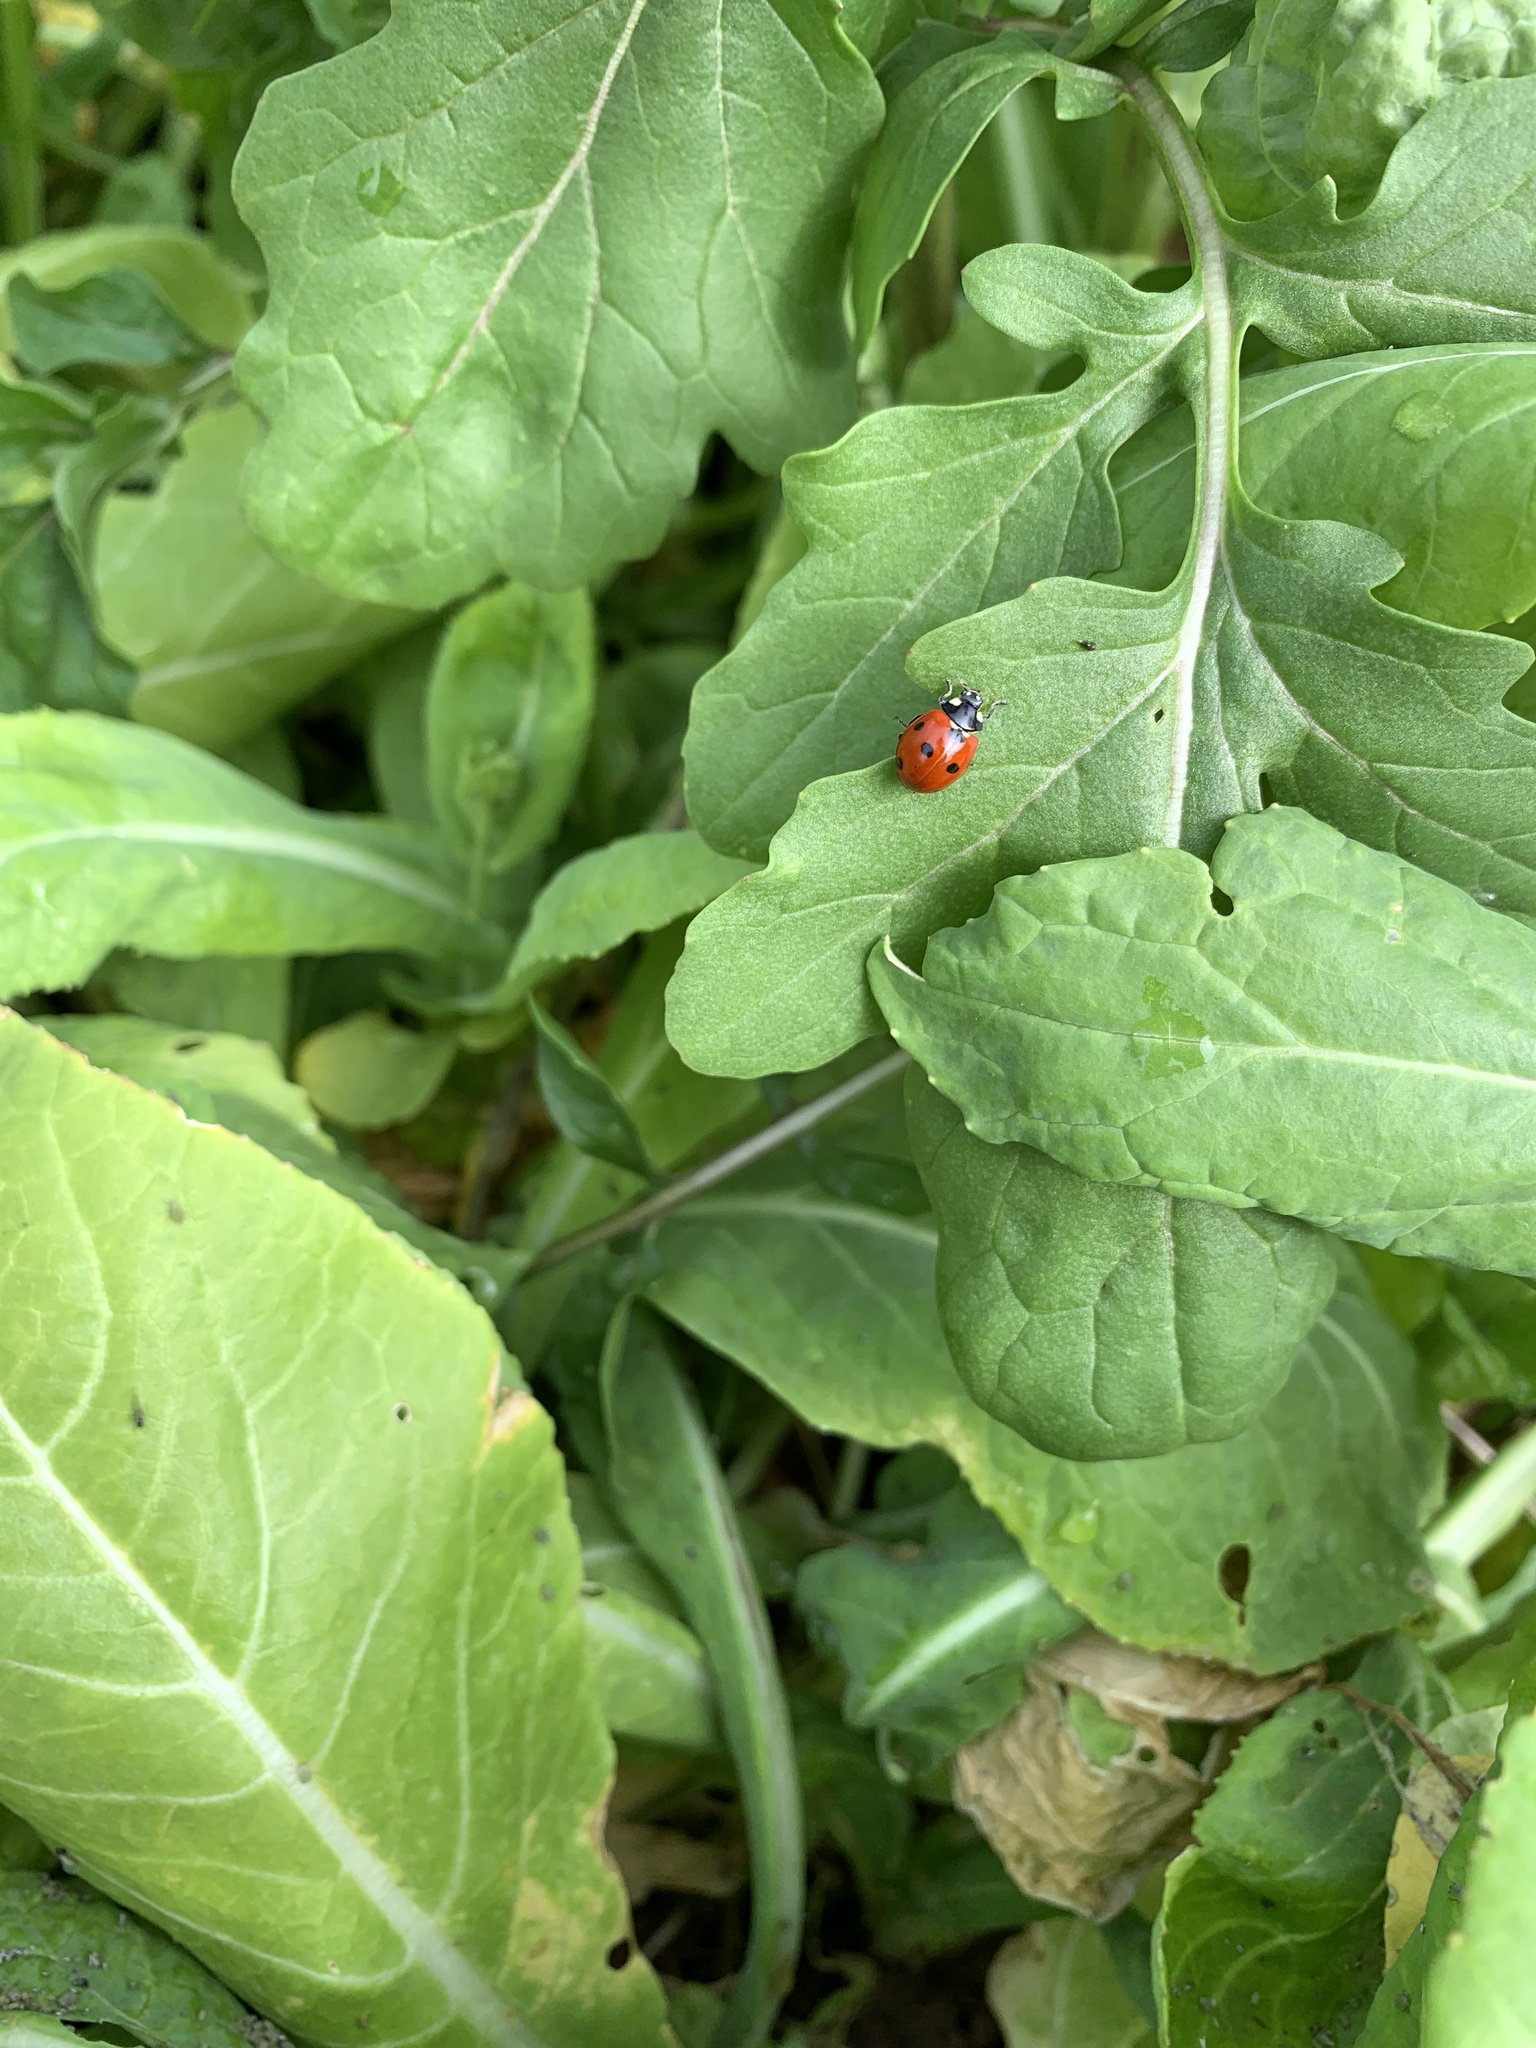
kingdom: Animalia
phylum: Arthropoda
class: Insecta
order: Coleoptera
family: Coccinellidae
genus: Coccinella
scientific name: Coccinella septempunctata
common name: Sevenspotted lady beetle
